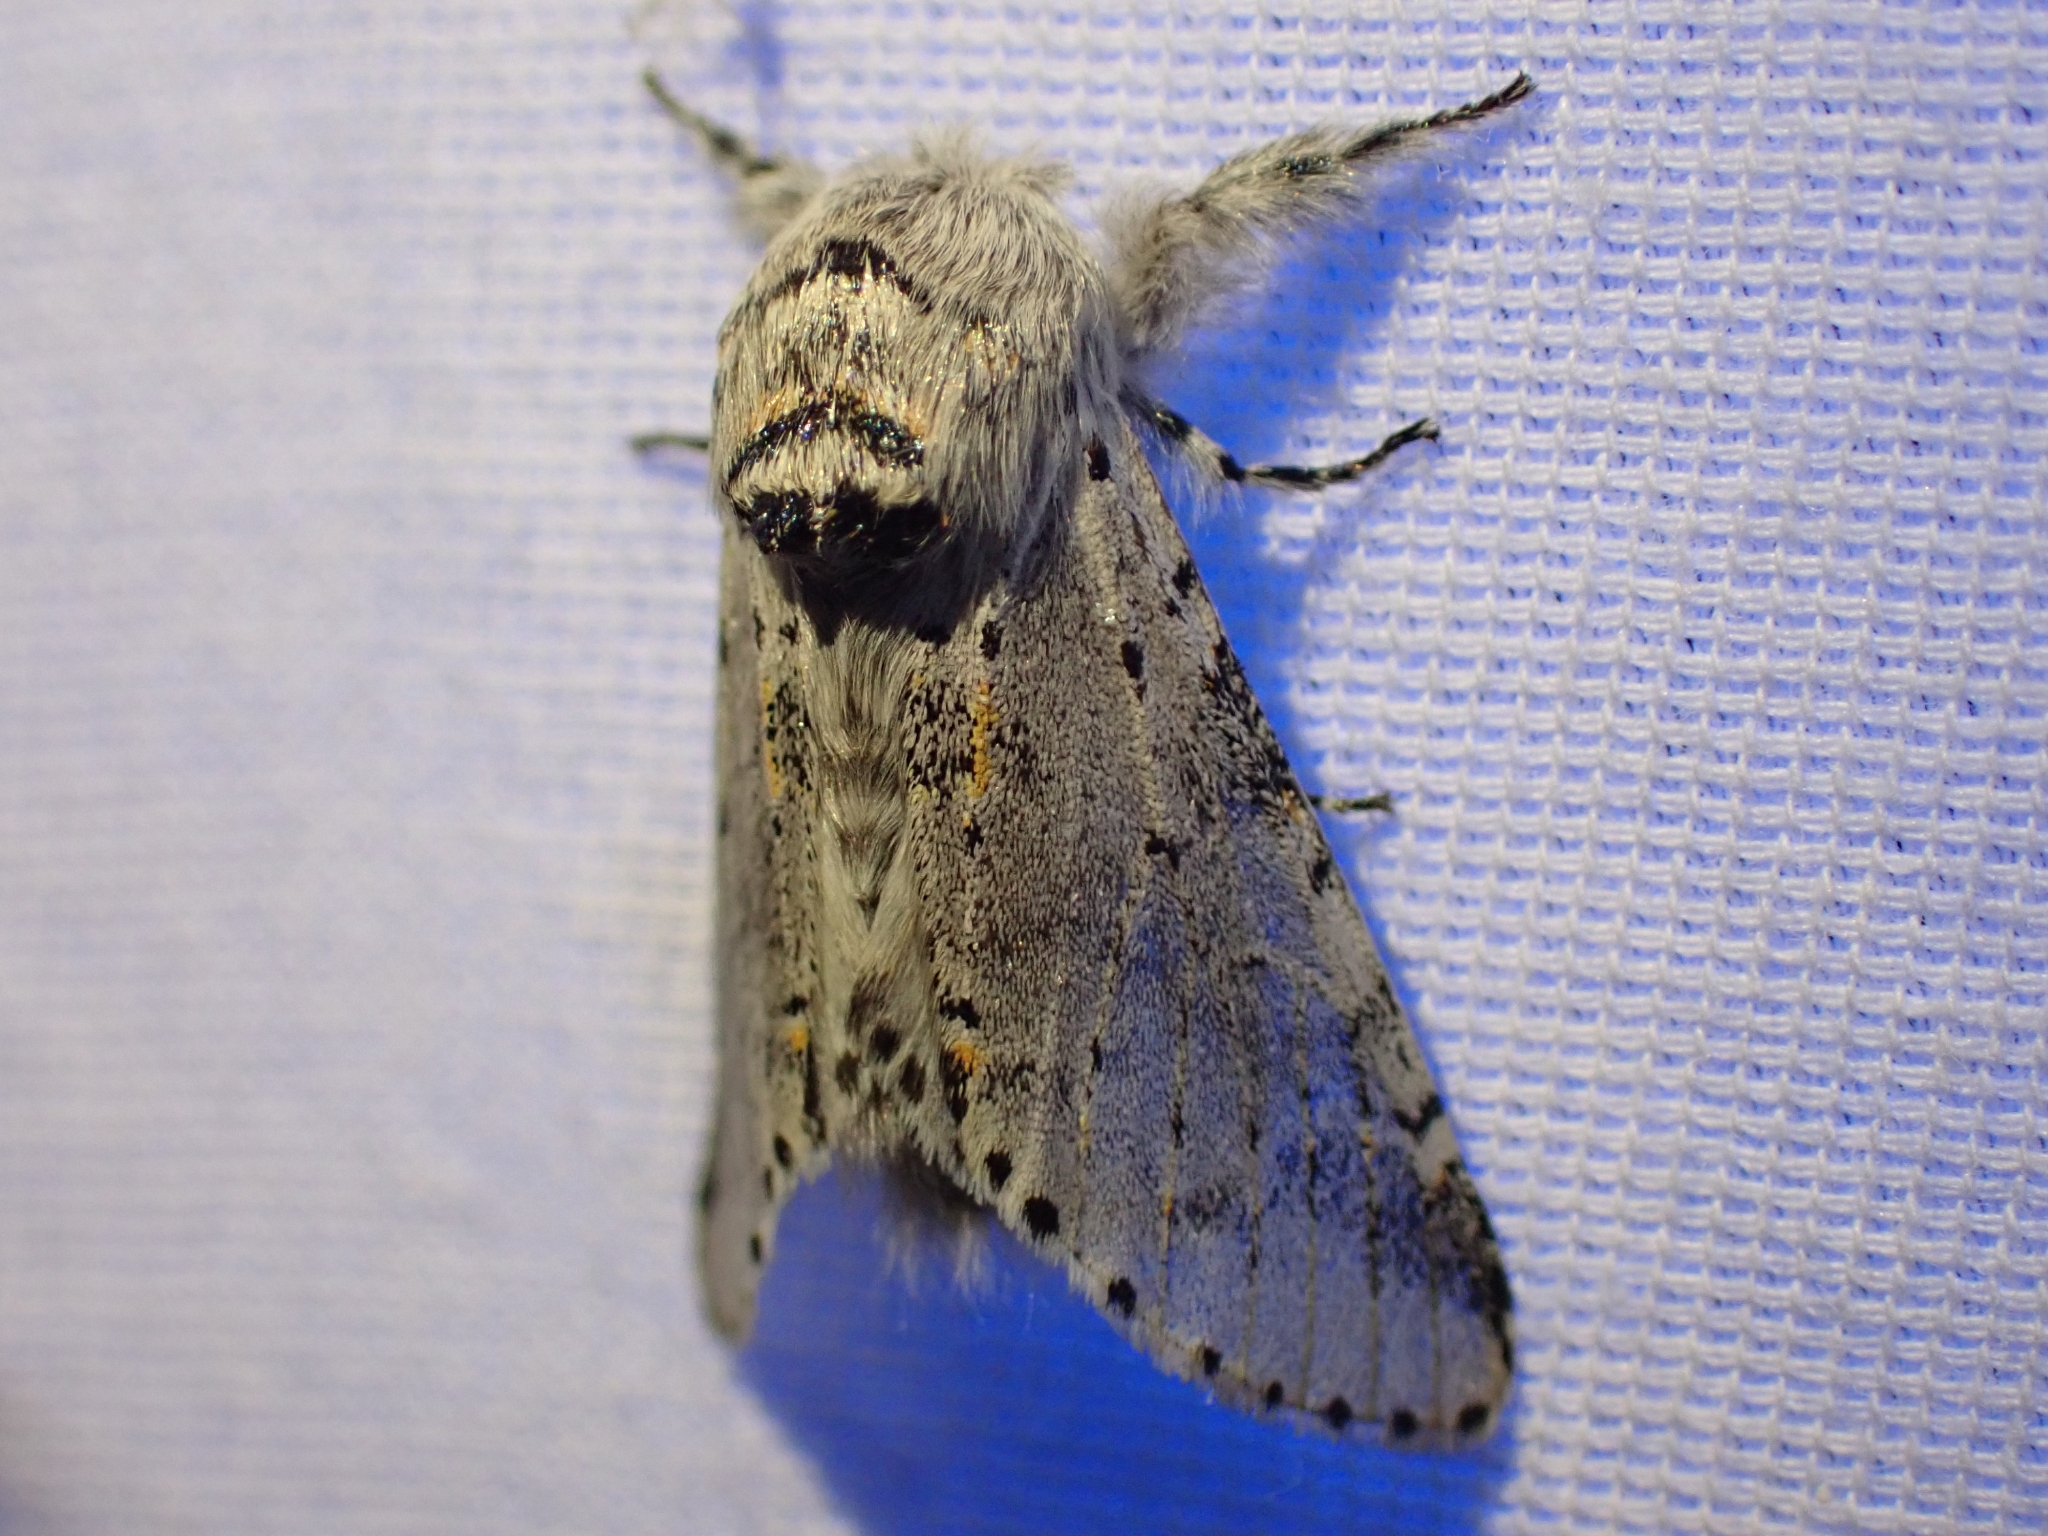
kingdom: Animalia
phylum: Arthropoda
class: Insecta
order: Lepidoptera
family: Notodontidae
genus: Furcula
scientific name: Furcula cinerea
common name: Gray furcula
